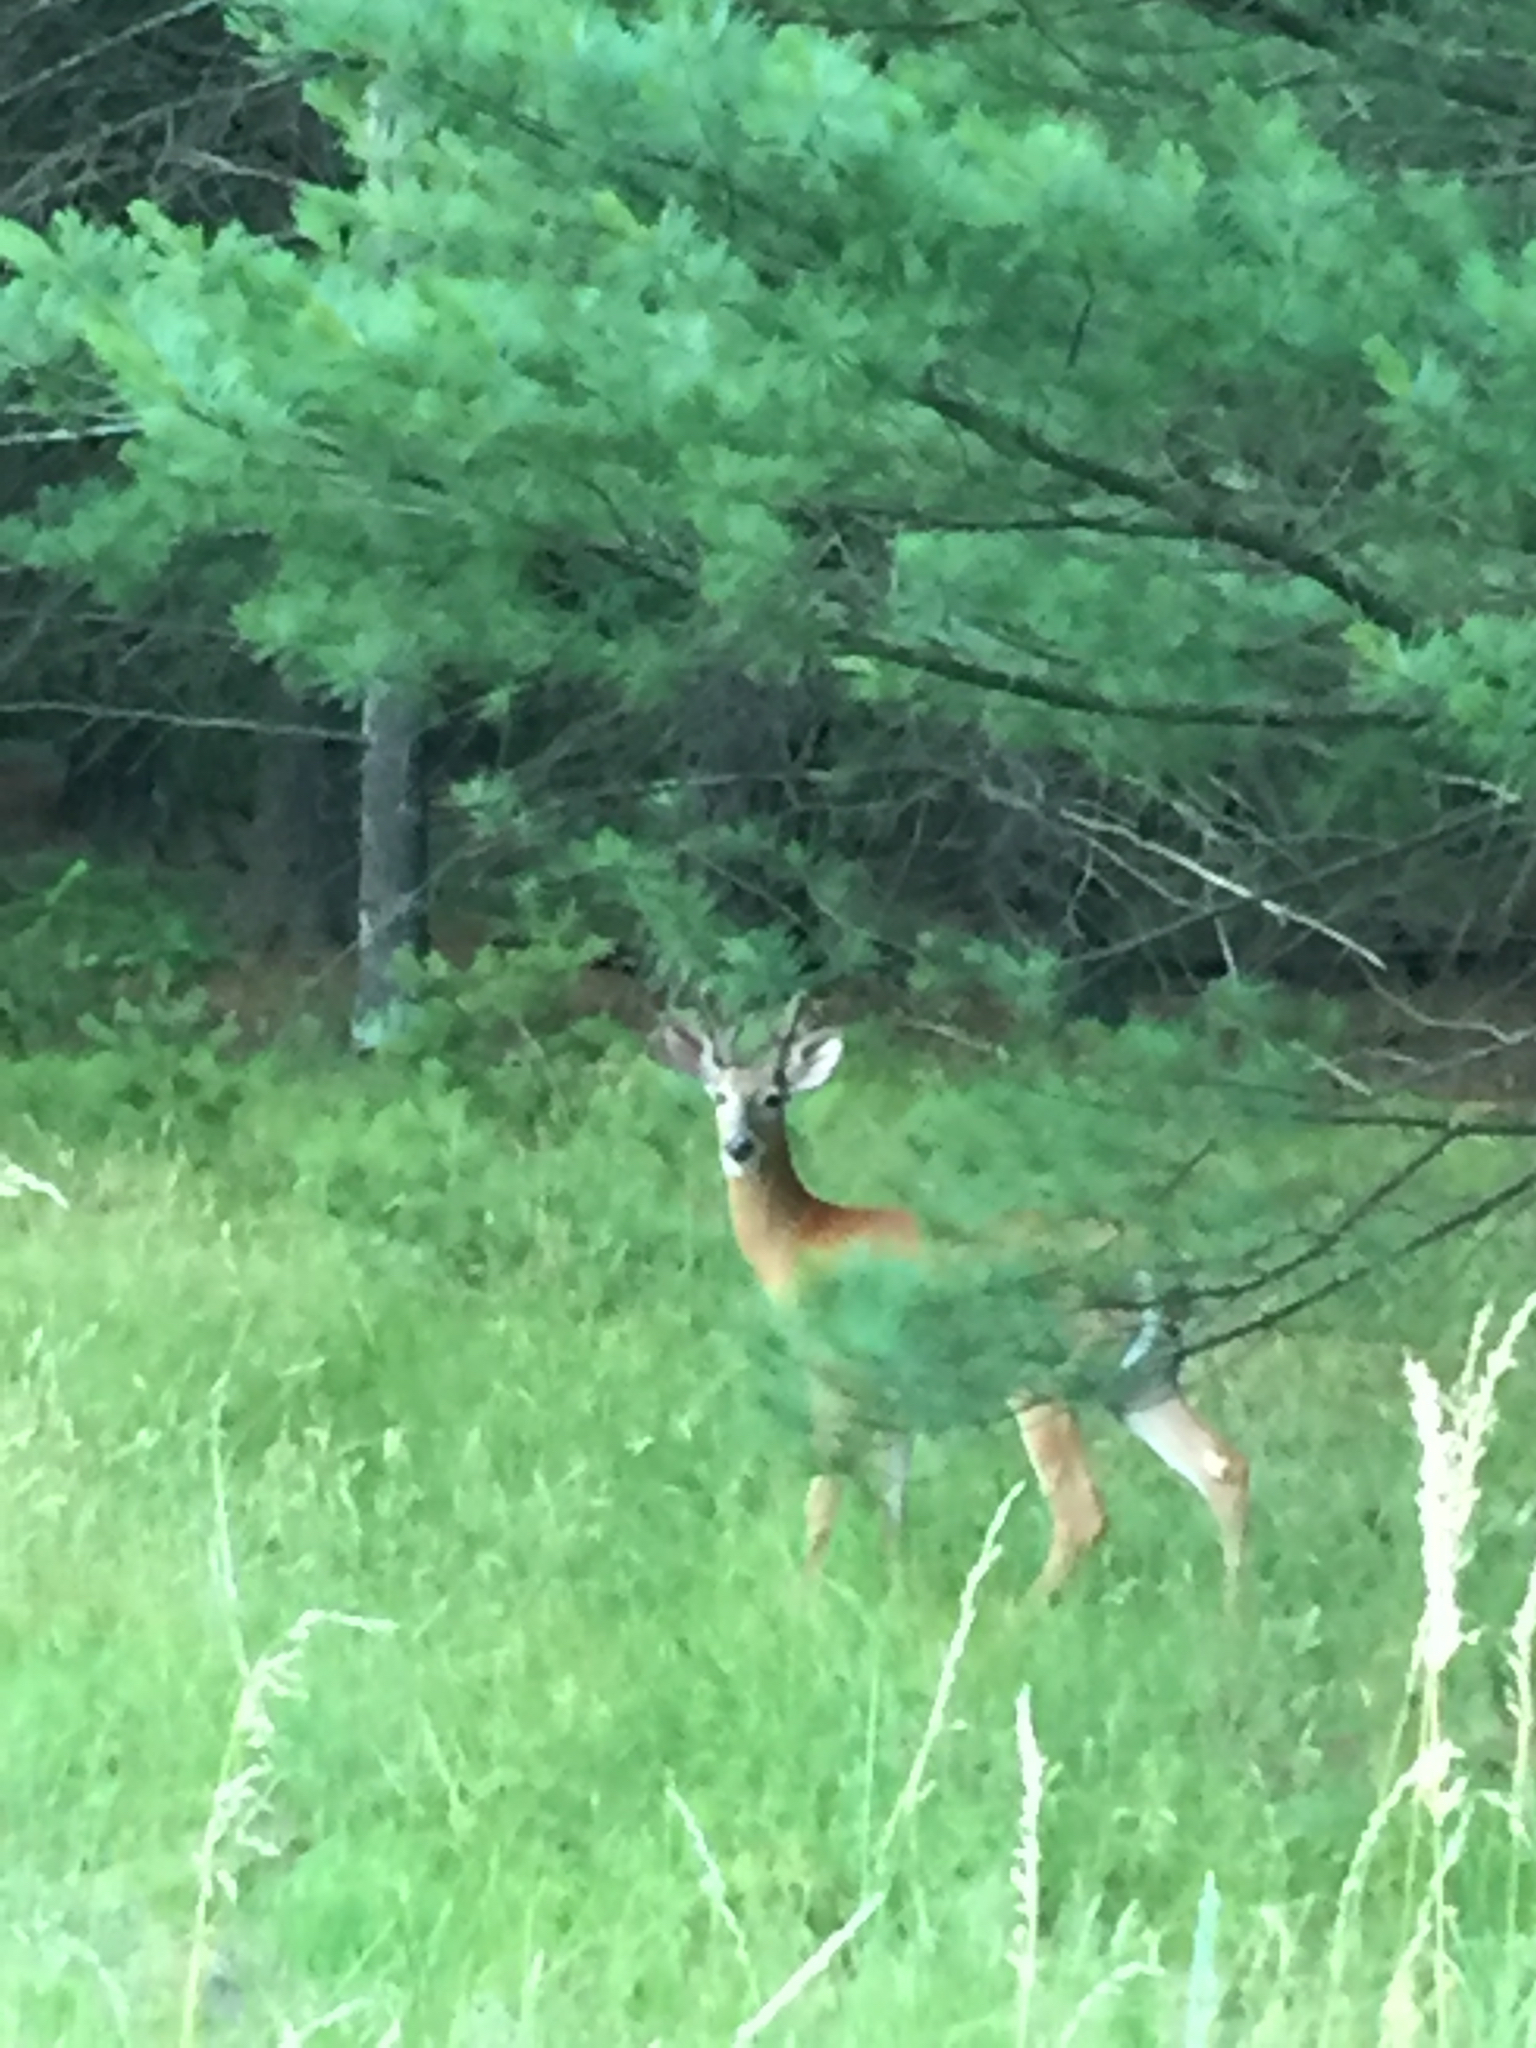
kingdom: Animalia
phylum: Chordata
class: Mammalia
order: Artiodactyla
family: Cervidae
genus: Odocoileus
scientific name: Odocoileus virginianus
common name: White-tailed deer
